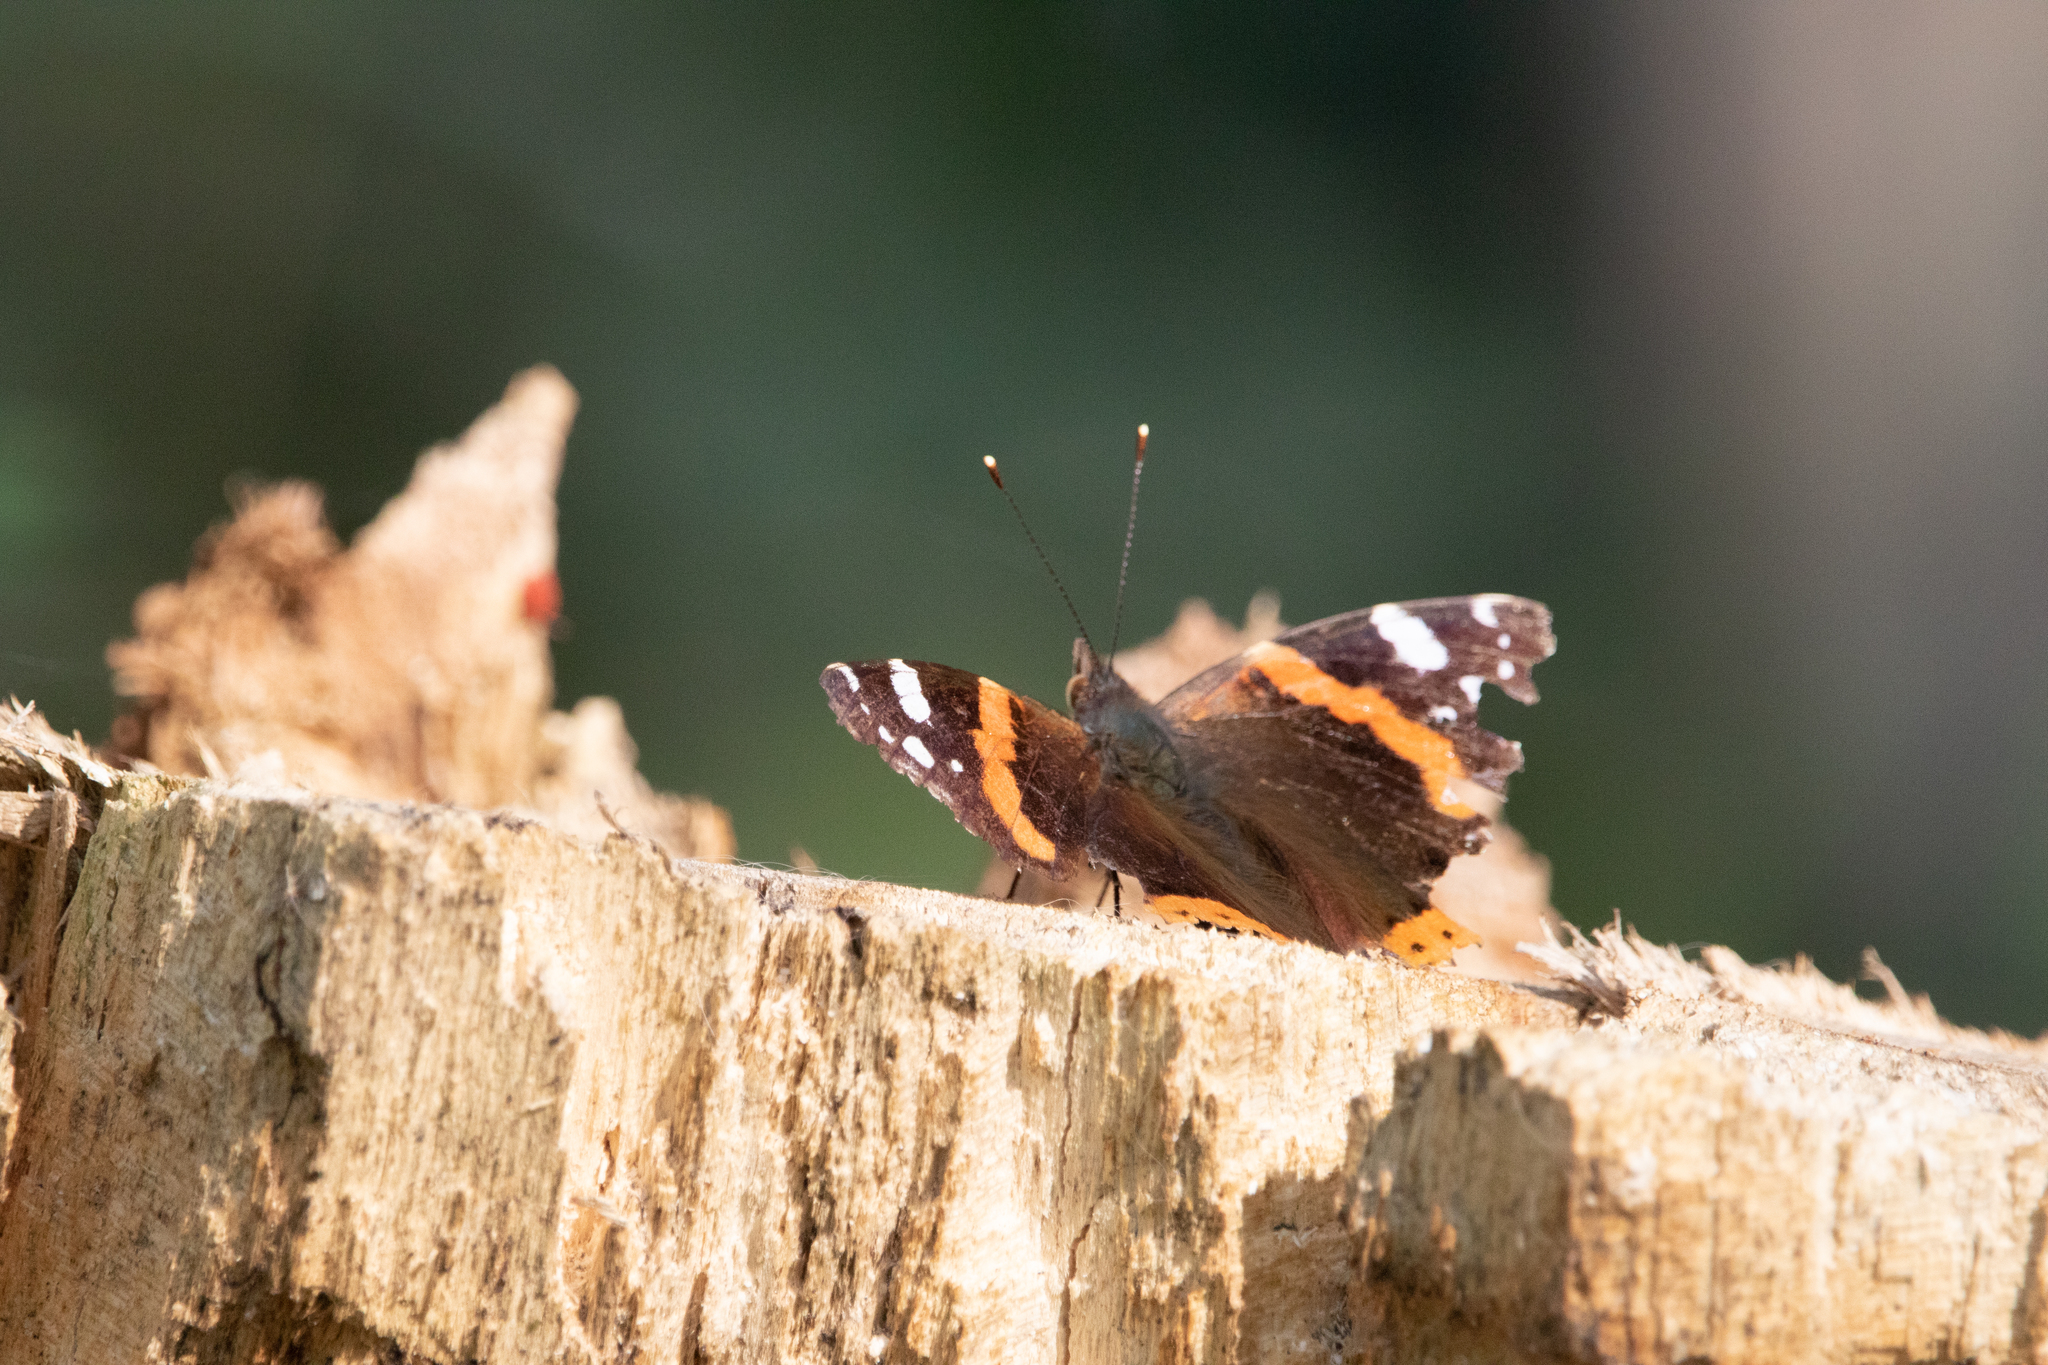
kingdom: Animalia
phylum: Arthropoda
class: Insecta
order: Lepidoptera
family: Nymphalidae
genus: Vanessa
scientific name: Vanessa atalanta
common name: Red admiral
